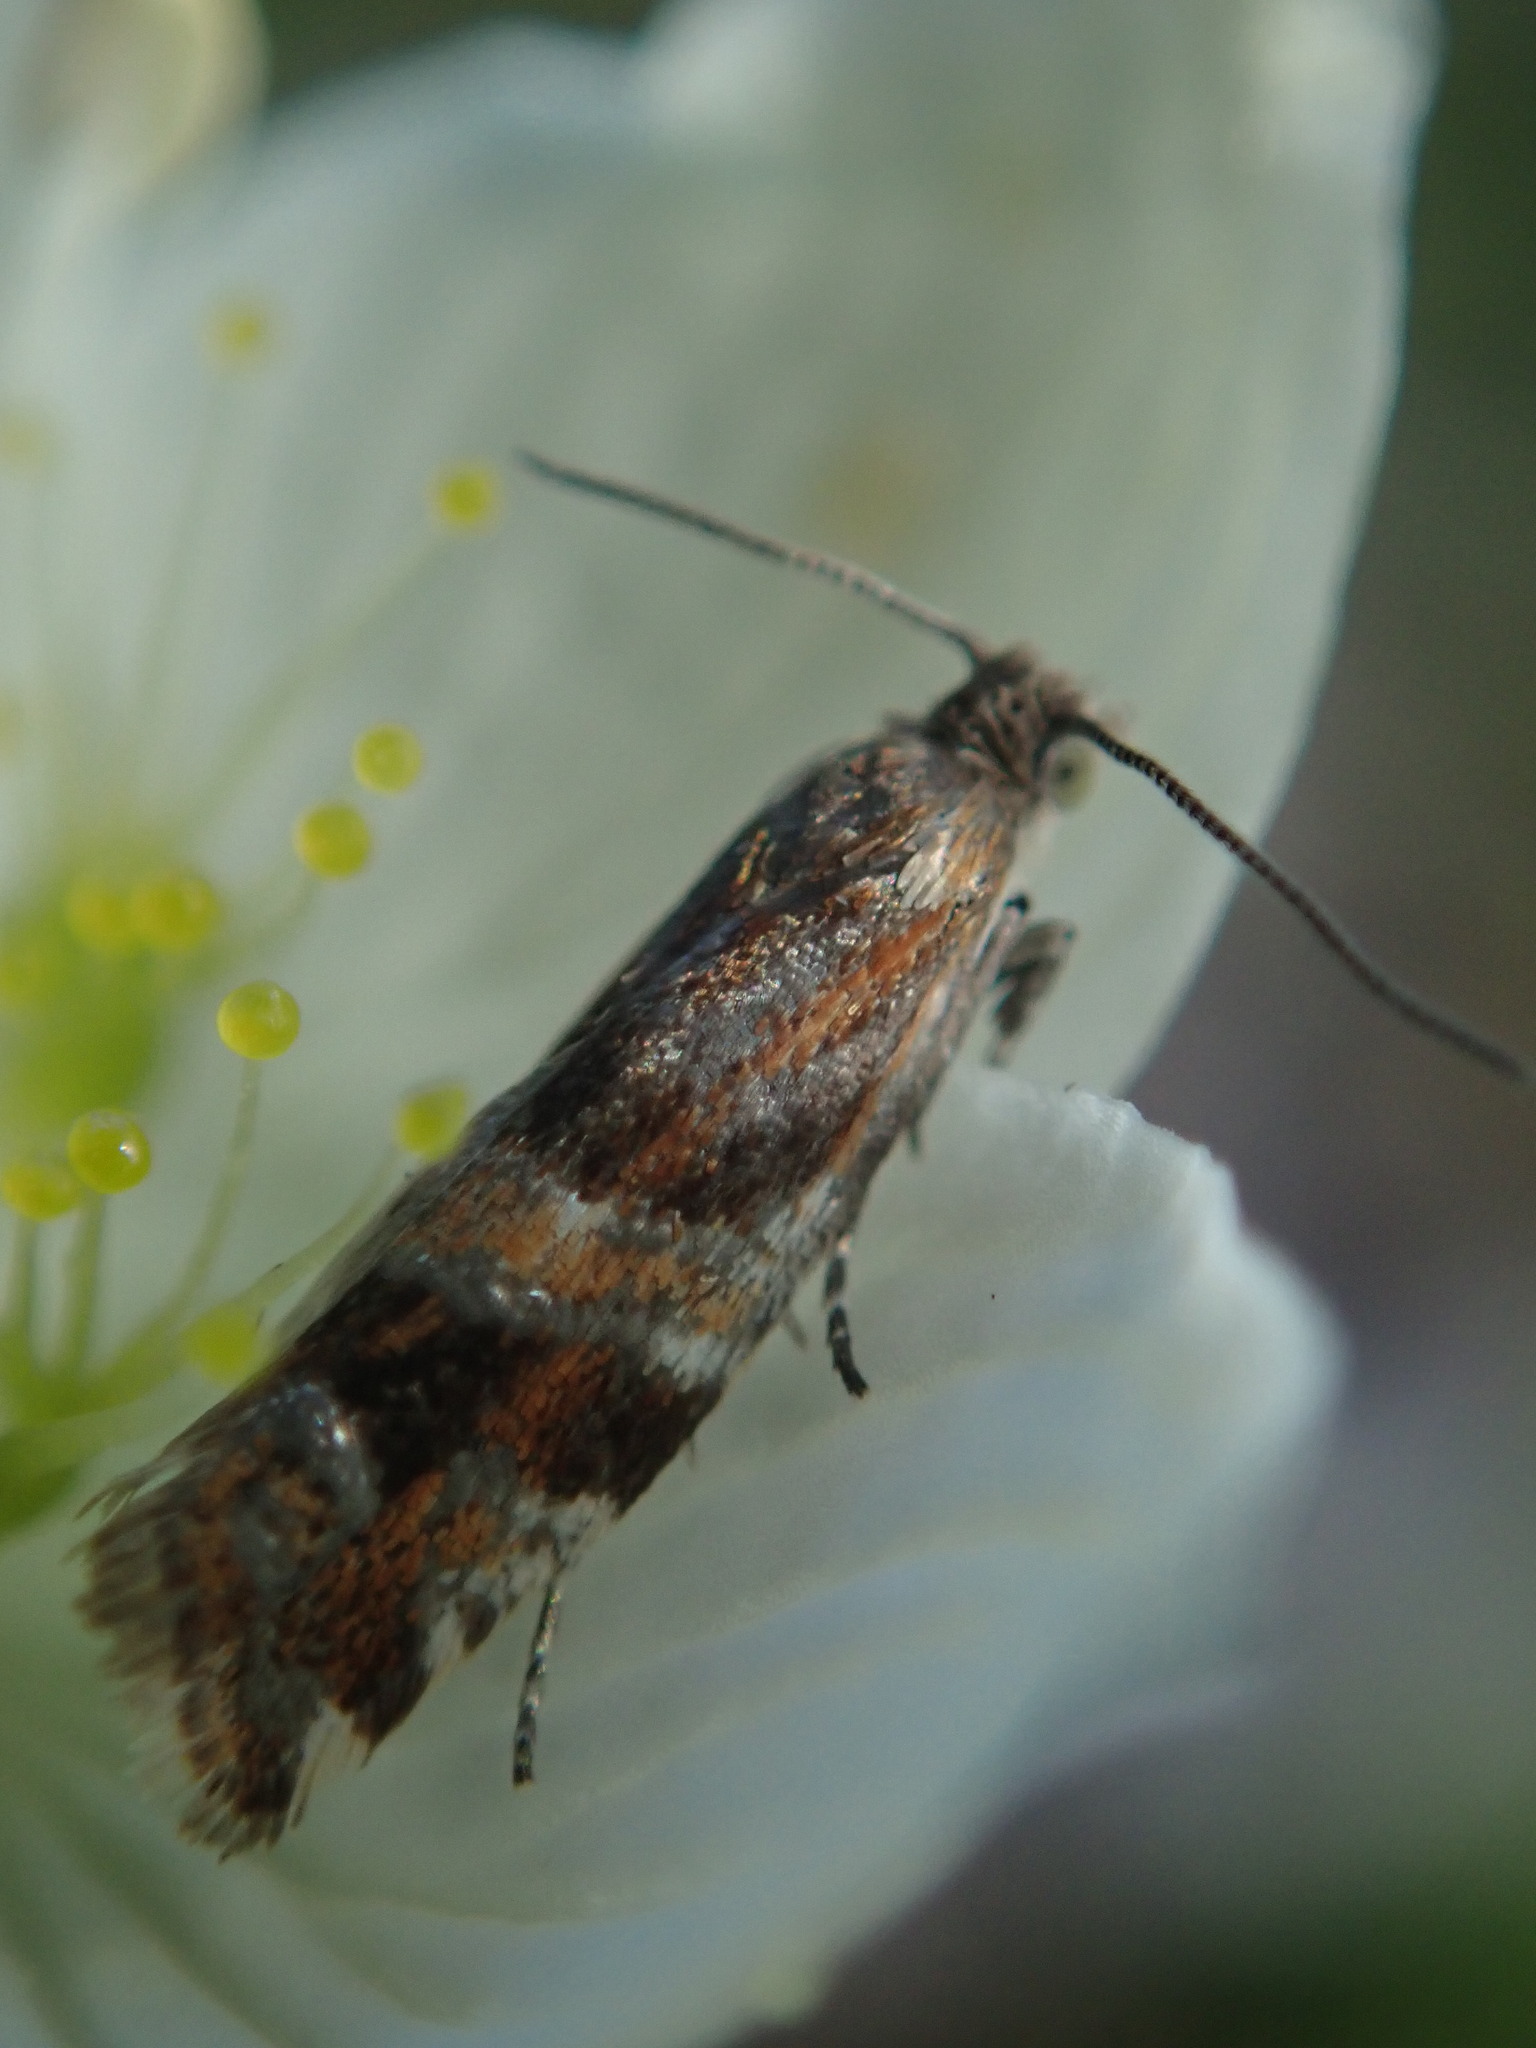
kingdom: Animalia
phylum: Arthropoda
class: Insecta
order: Lepidoptera
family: Tortricidae
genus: Epinotia
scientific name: Epinotia mercuriana
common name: Moorland bell
